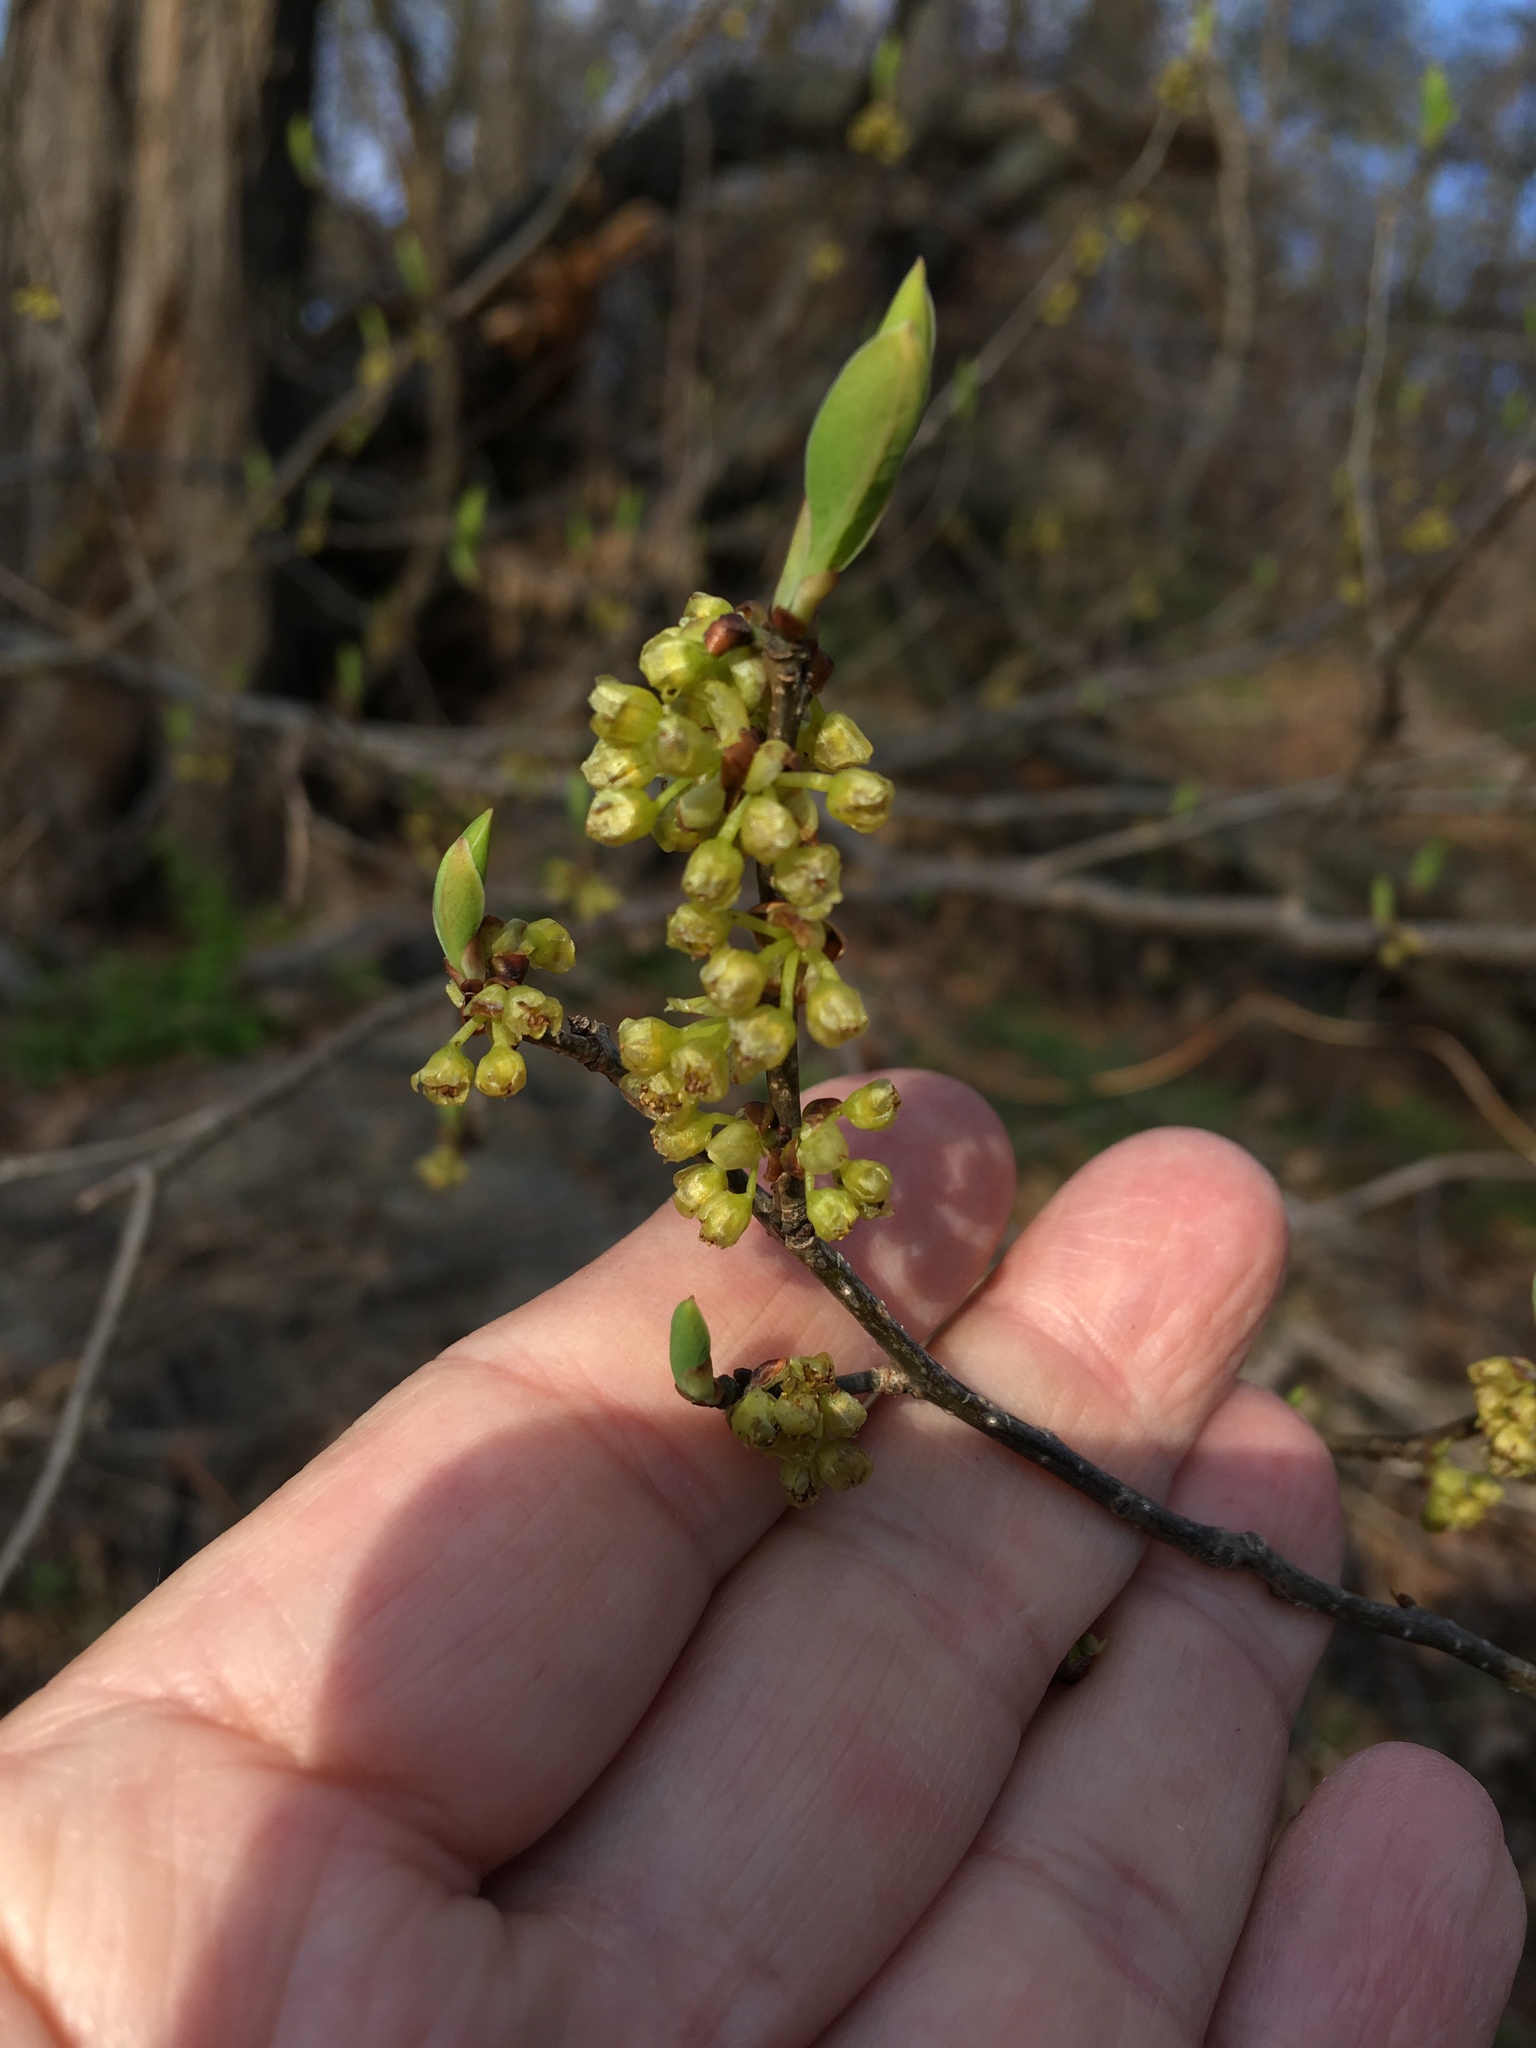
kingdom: Plantae
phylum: Tracheophyta
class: Magnoliopsida
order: Laurales
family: Lauraceae
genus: Lindera
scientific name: Lindera benzoin
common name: Spicebush
